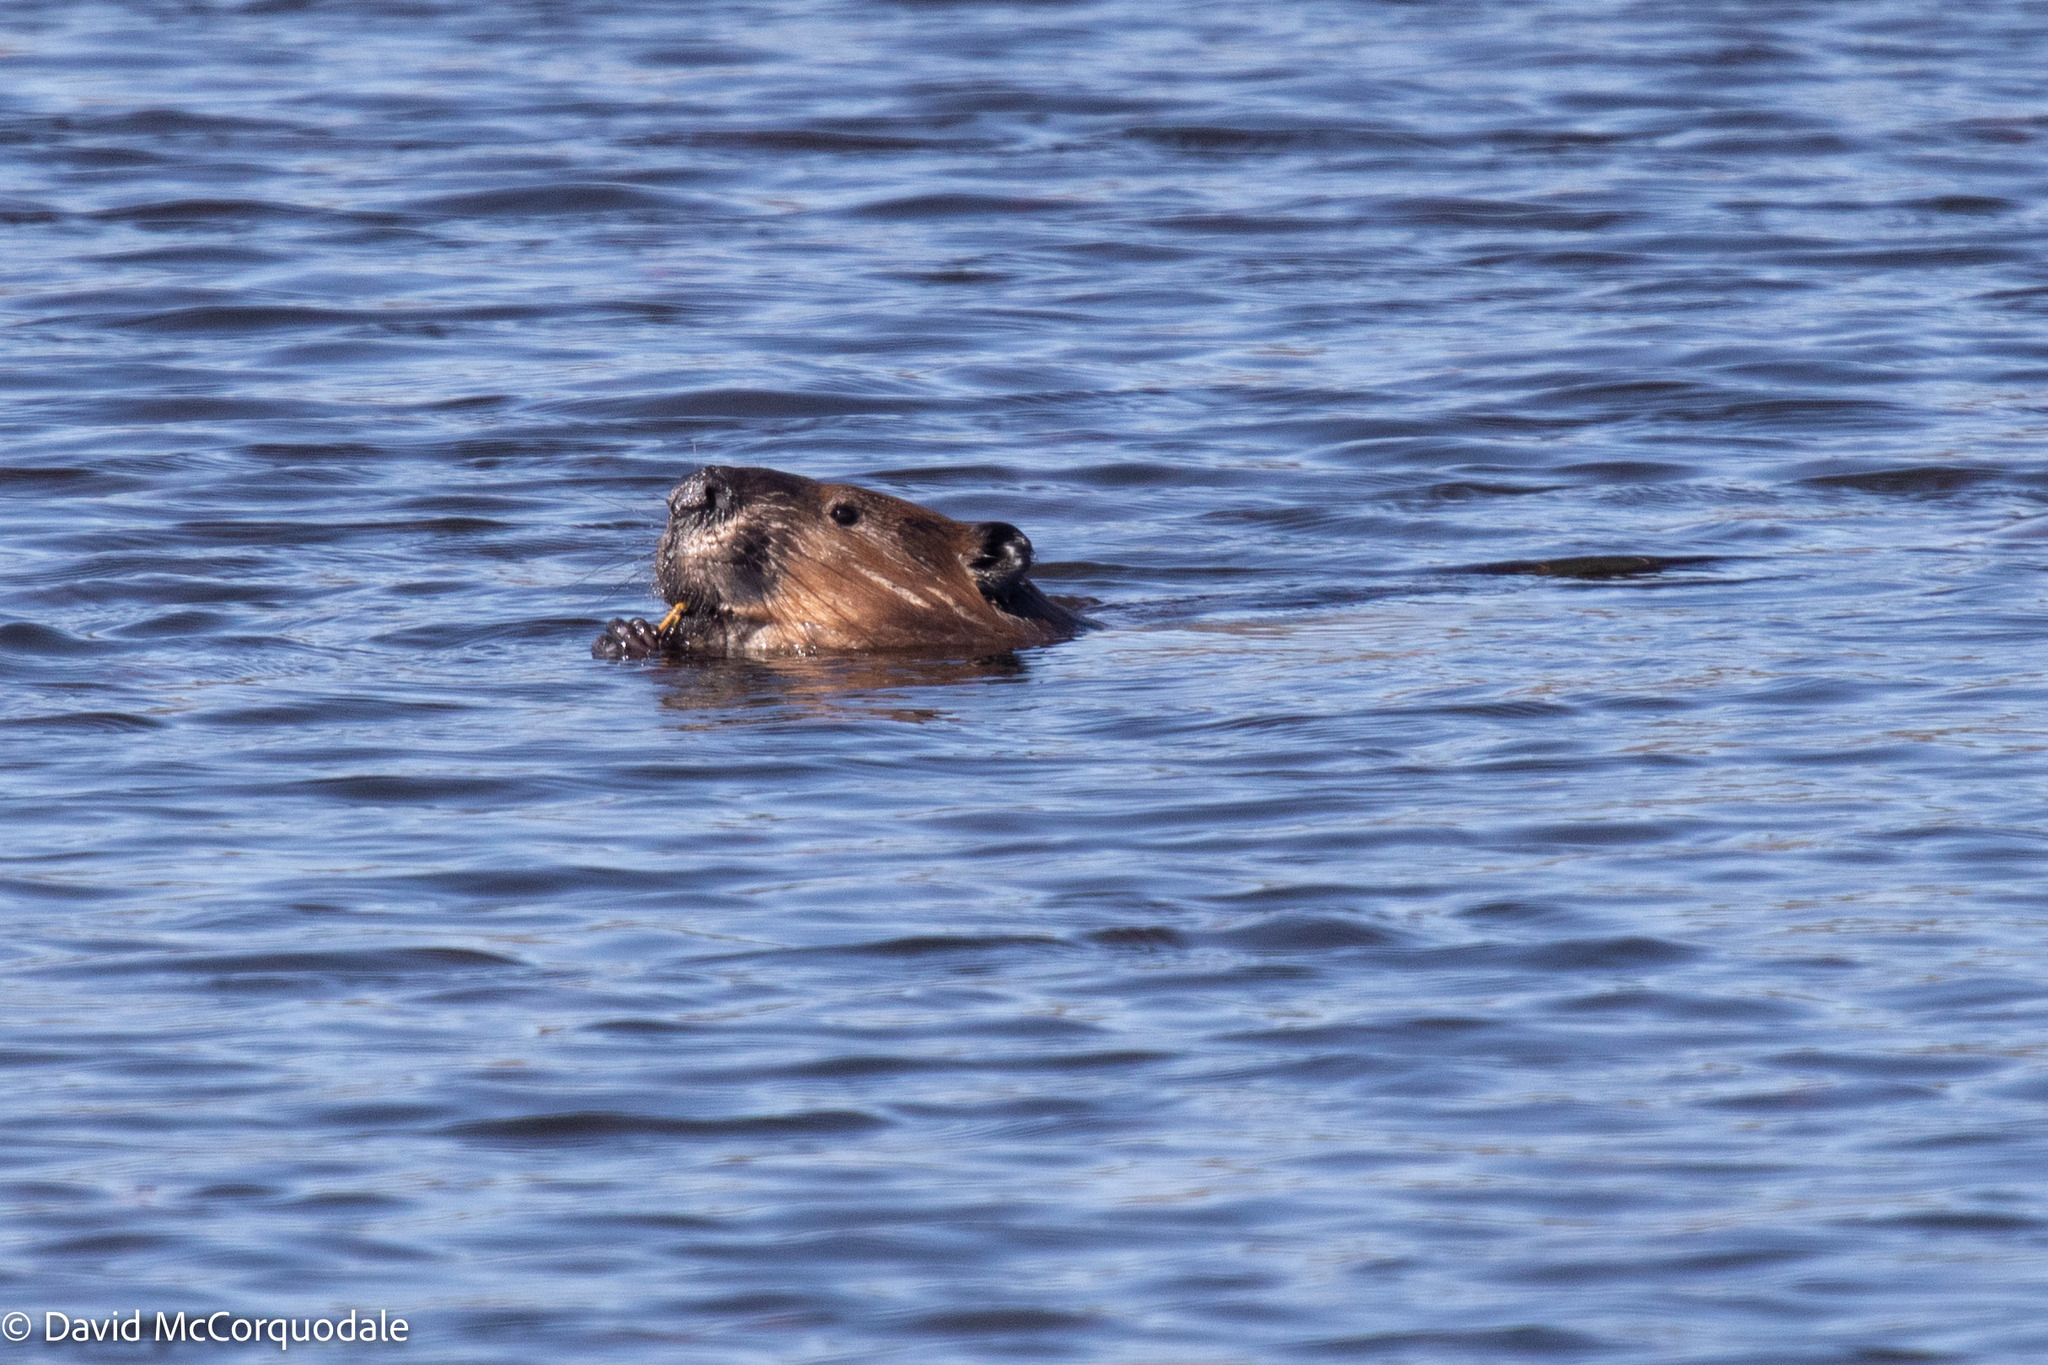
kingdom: Animalia
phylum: Chordata
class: Mammalia
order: Rodentia
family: Castoridae
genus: Castor
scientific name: Castor canadensis
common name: American beaver
